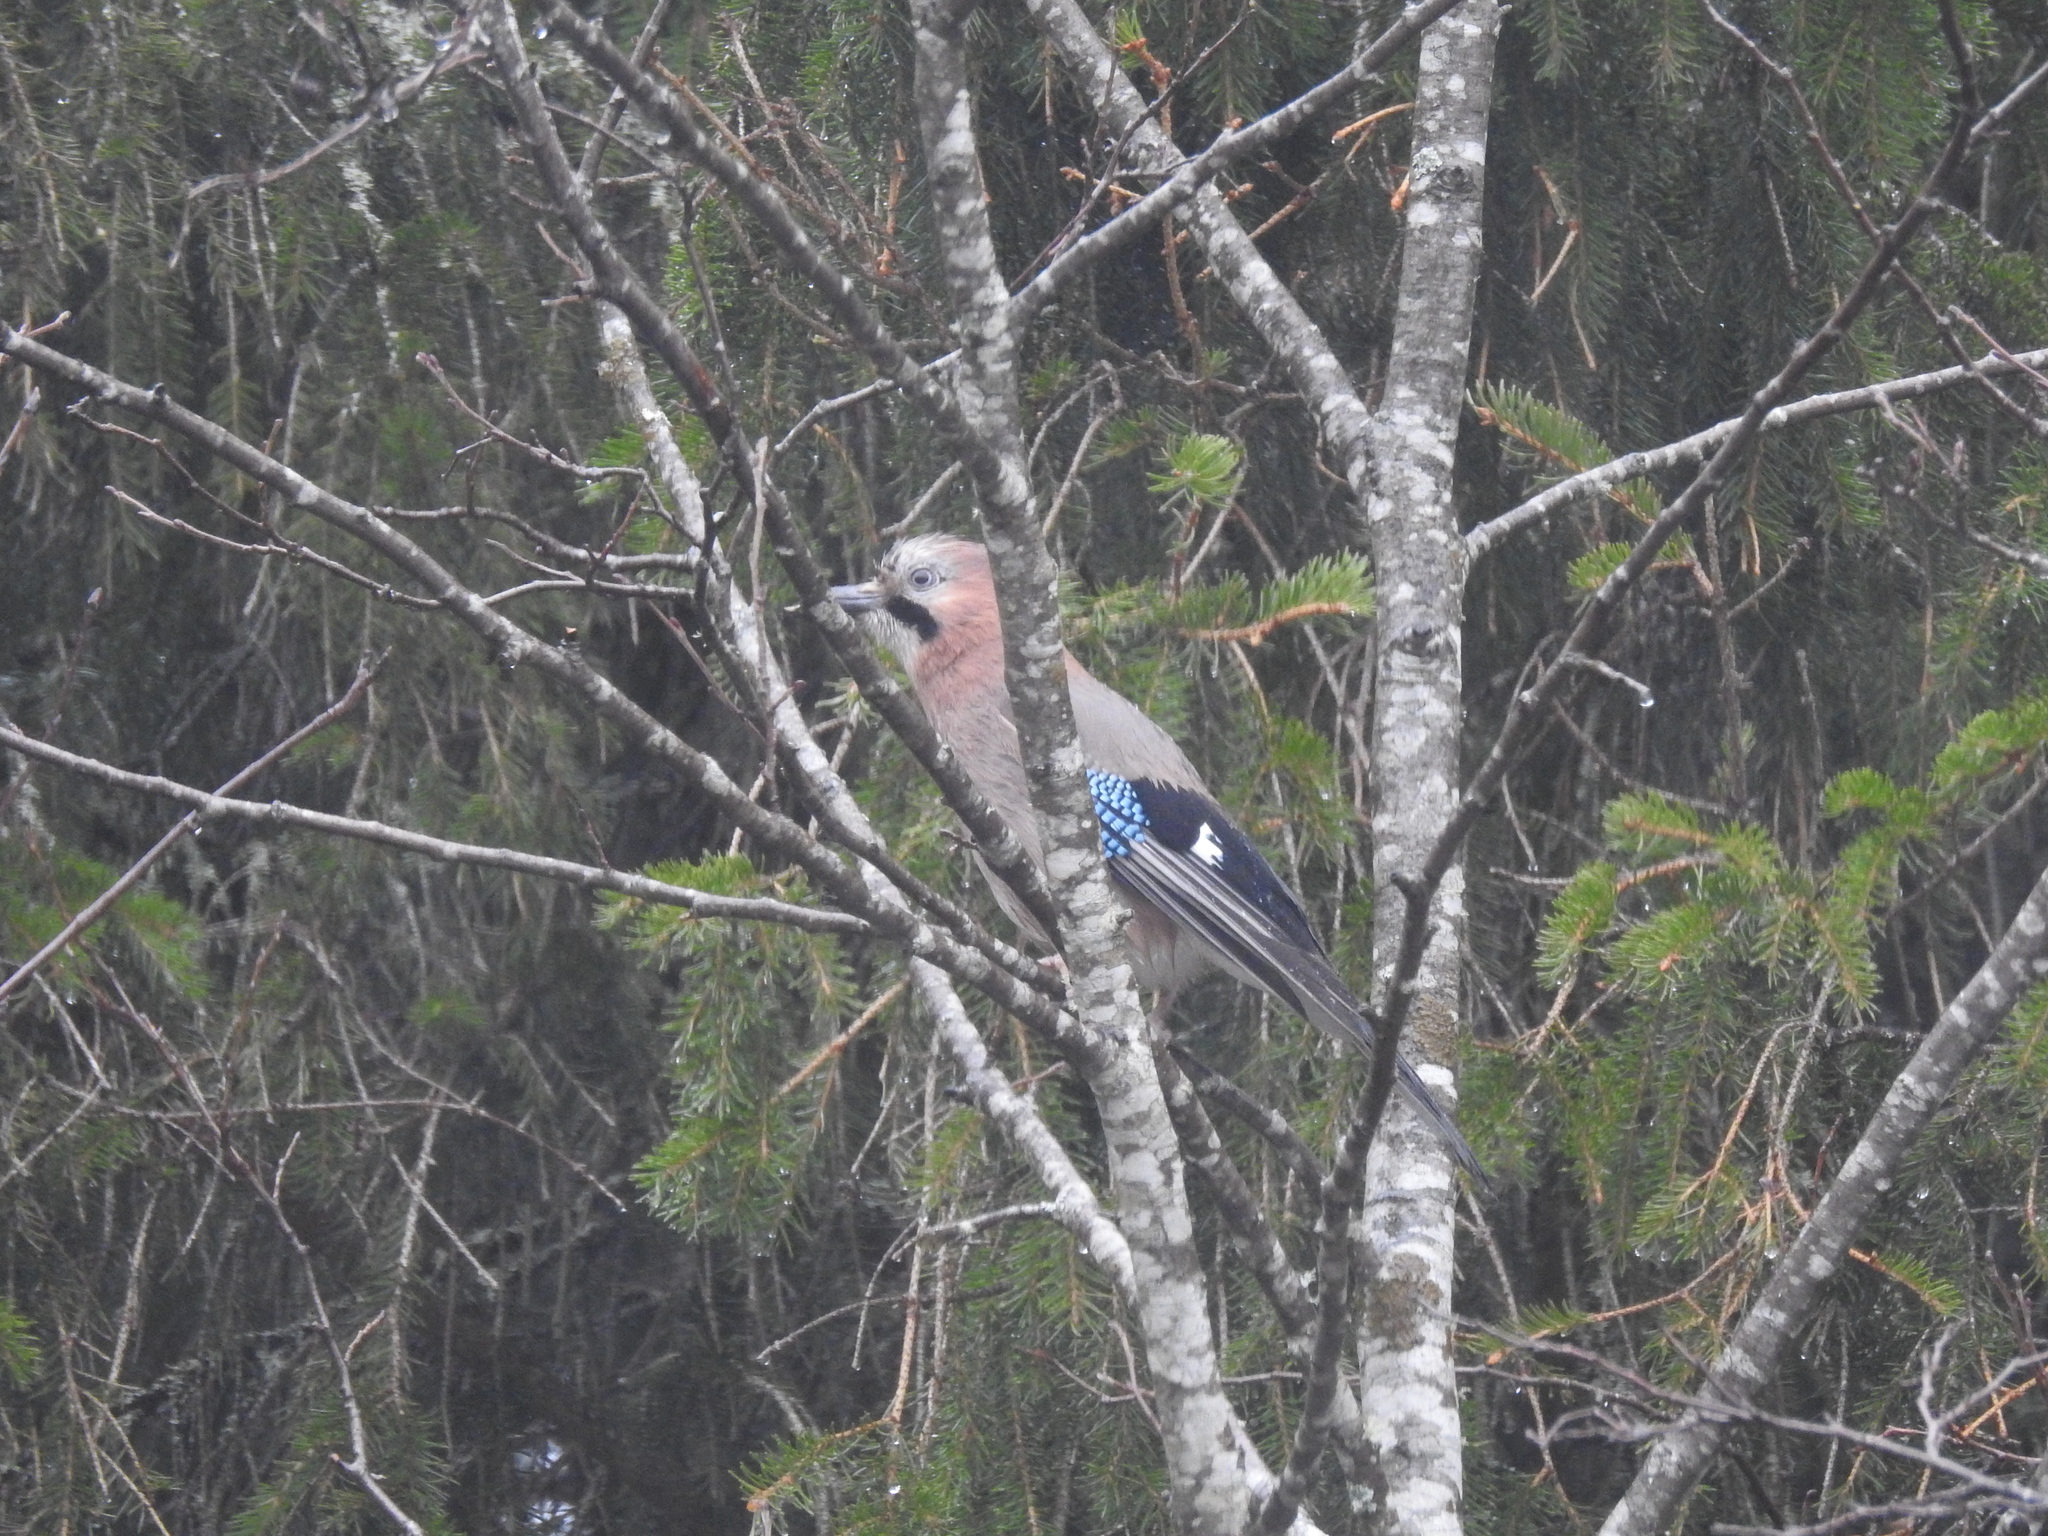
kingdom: Animalia
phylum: Chordata
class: Aves
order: Passeriformes
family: Corvidae
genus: Garrulus
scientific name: Garrulus glandarius
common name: Eurasian jay
